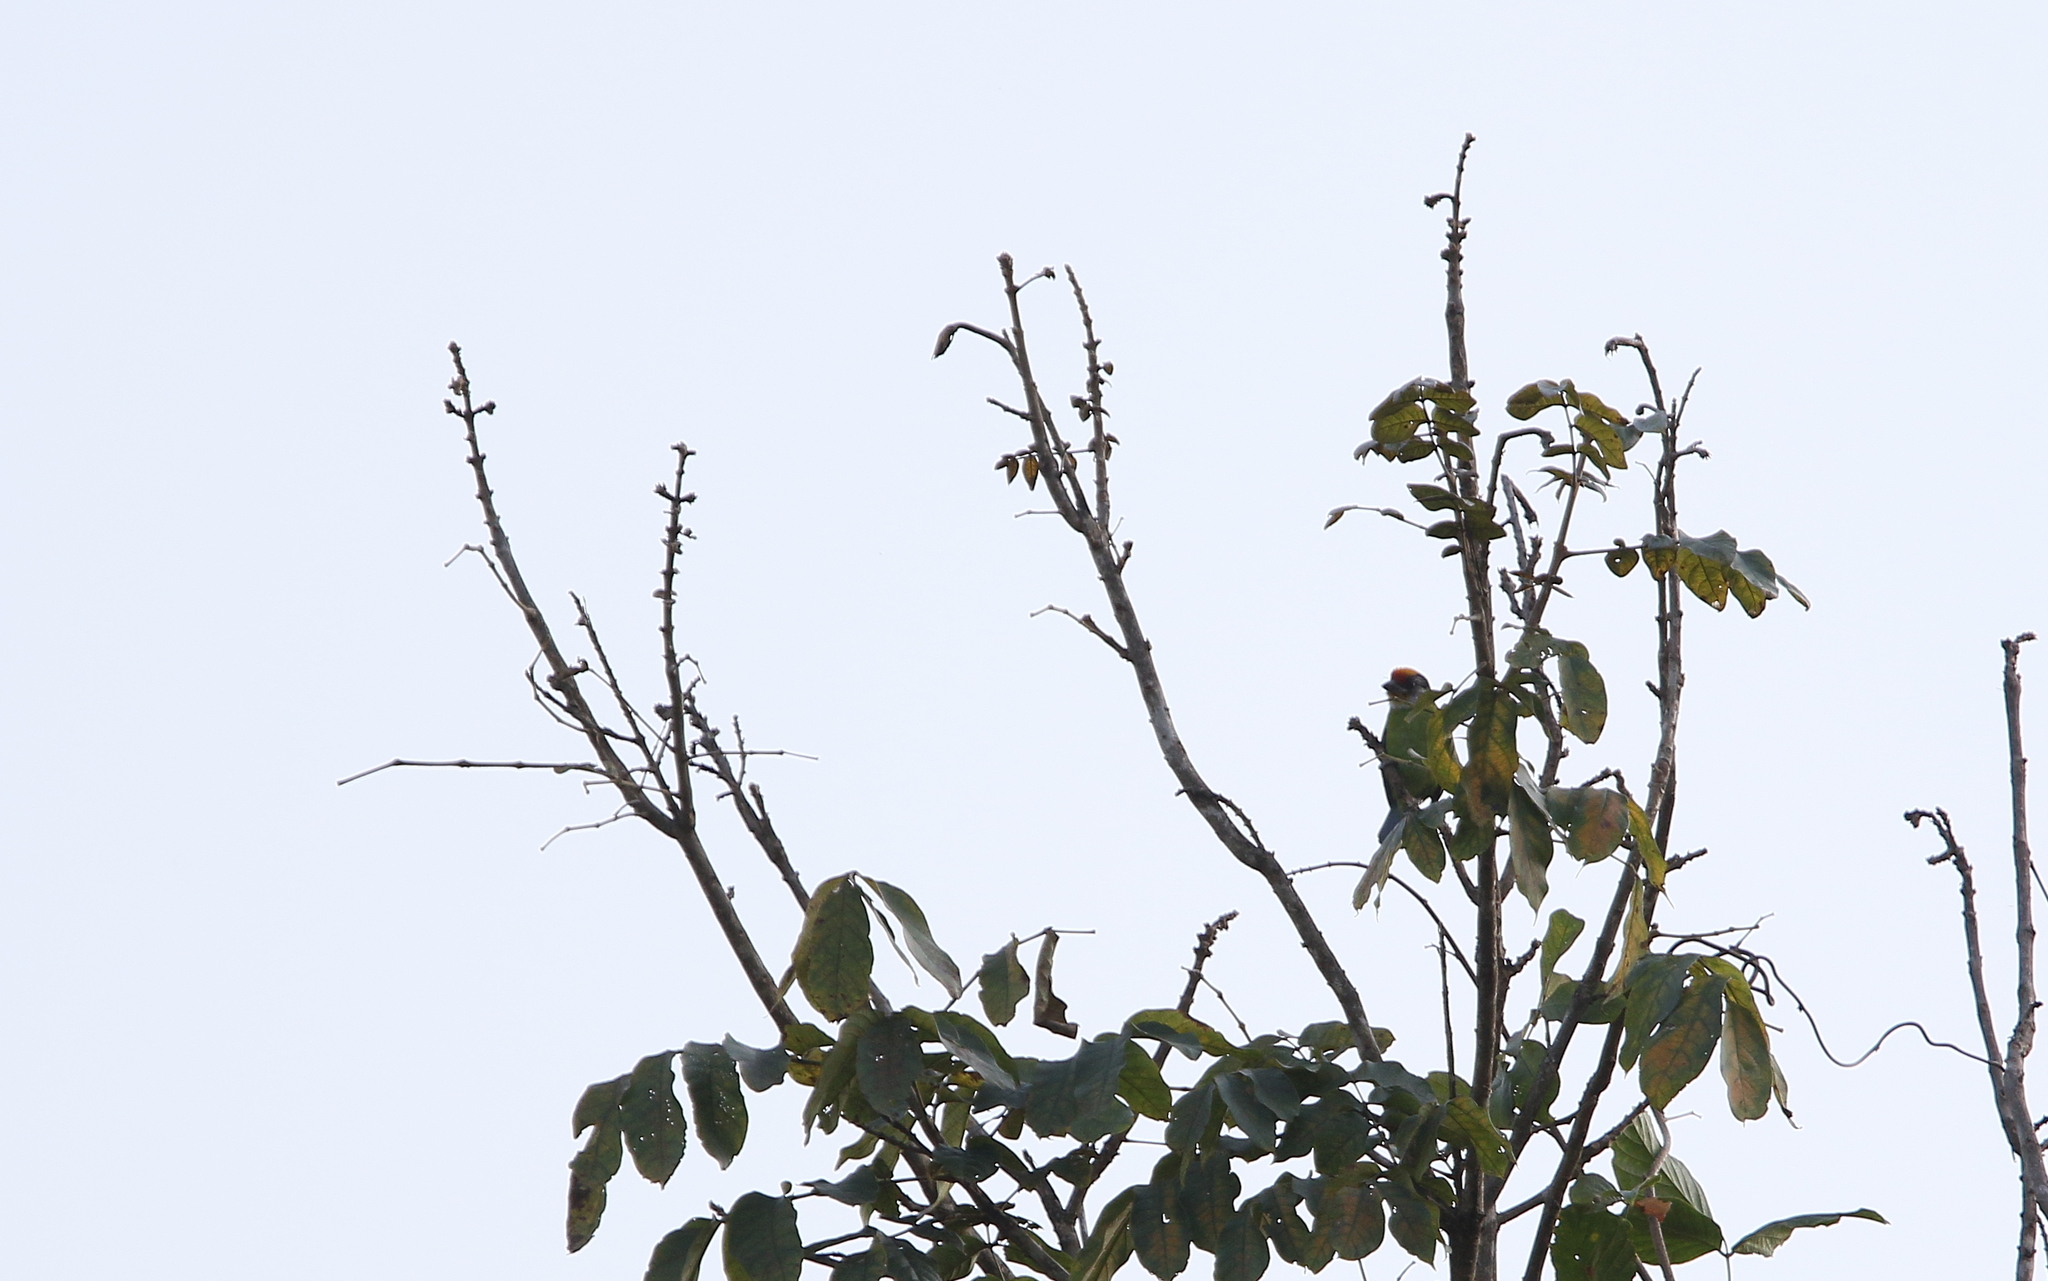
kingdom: Animalia
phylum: Chordata
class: Aves
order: Piciformes
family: Megalaimidae
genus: Psilopogon
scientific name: Psilopogon franklinii
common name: Golden-throated barbet
